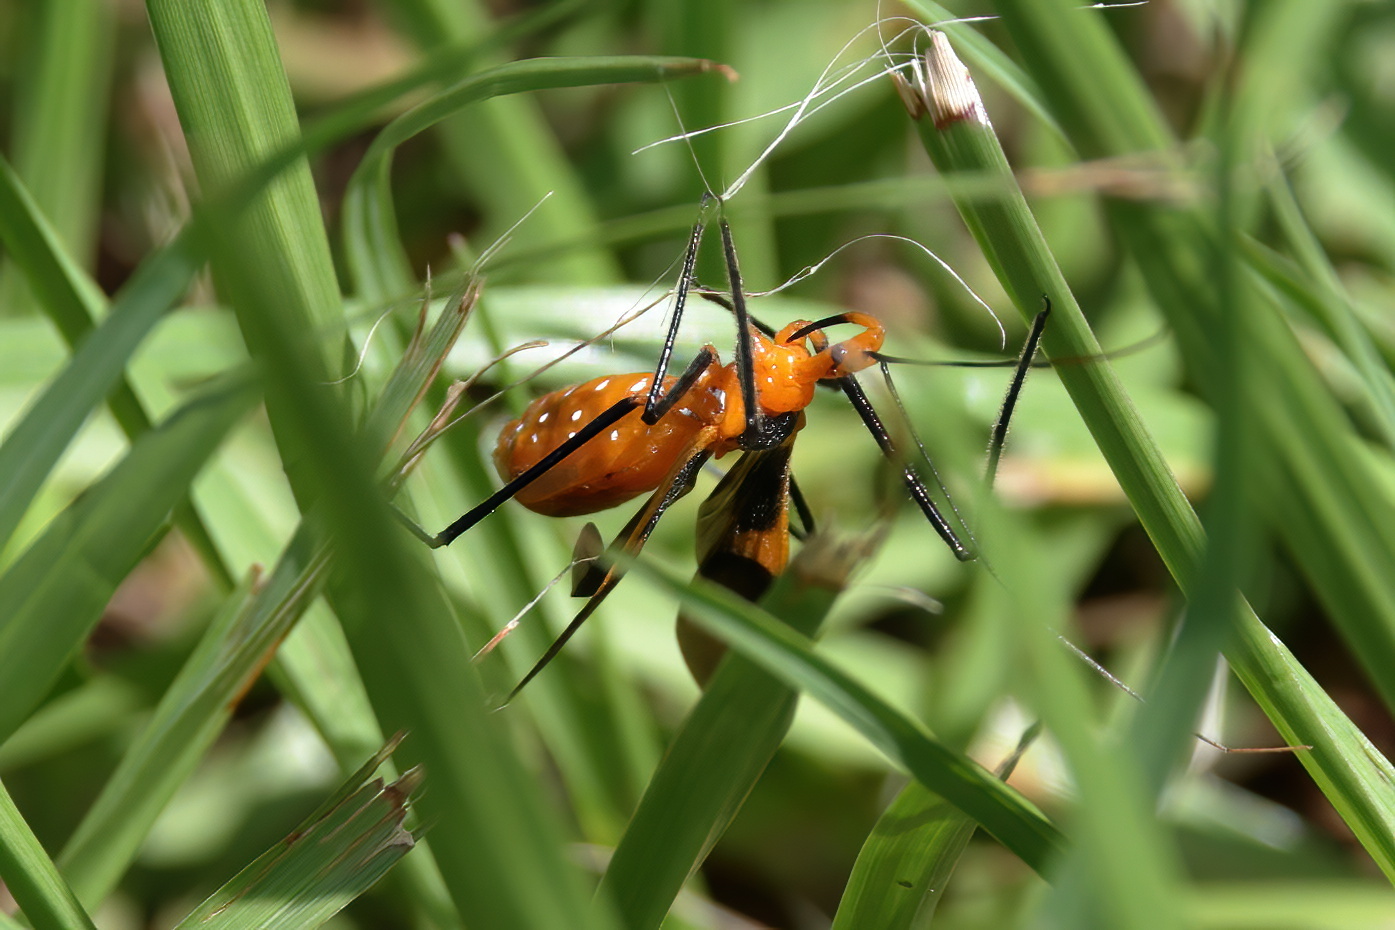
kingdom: Animalia
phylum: Arthropoda
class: Insecta
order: Hemiptera
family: Reduviidae
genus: Zelus
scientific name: Zelus longipes
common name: Milkweed assassin bug
